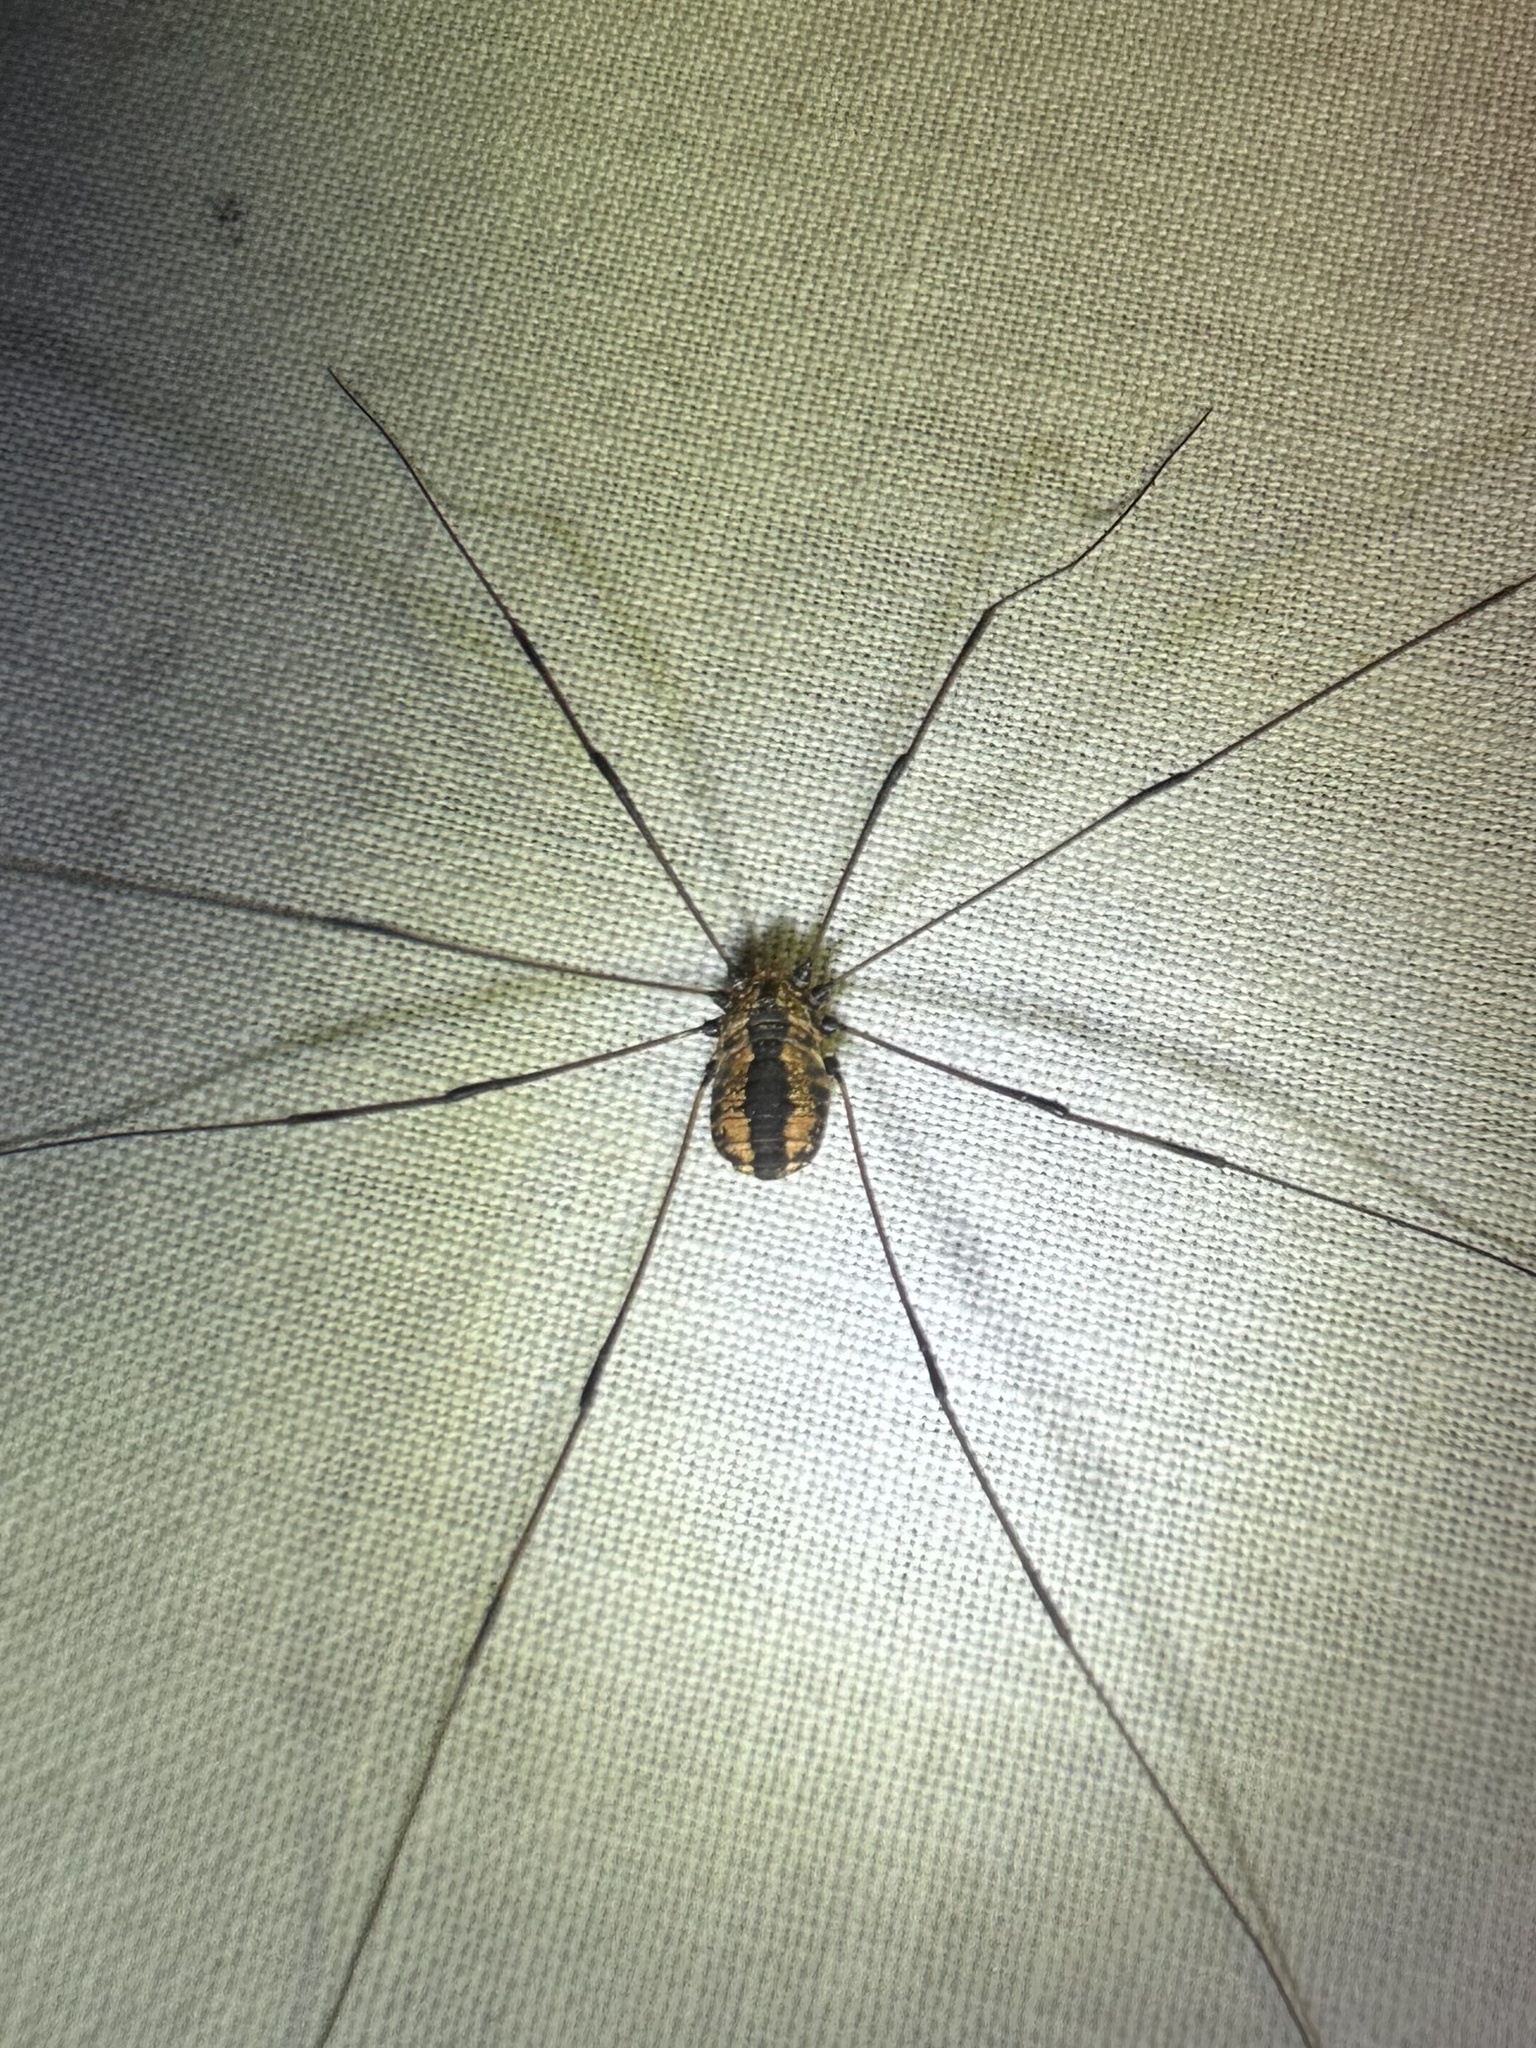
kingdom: Animalia
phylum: Arthropoda
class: Arachnida
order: Opiliones
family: Sclerosomatidae
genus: Leiobunum
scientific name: Leiobunum vittatum
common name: Eastern harvestman
